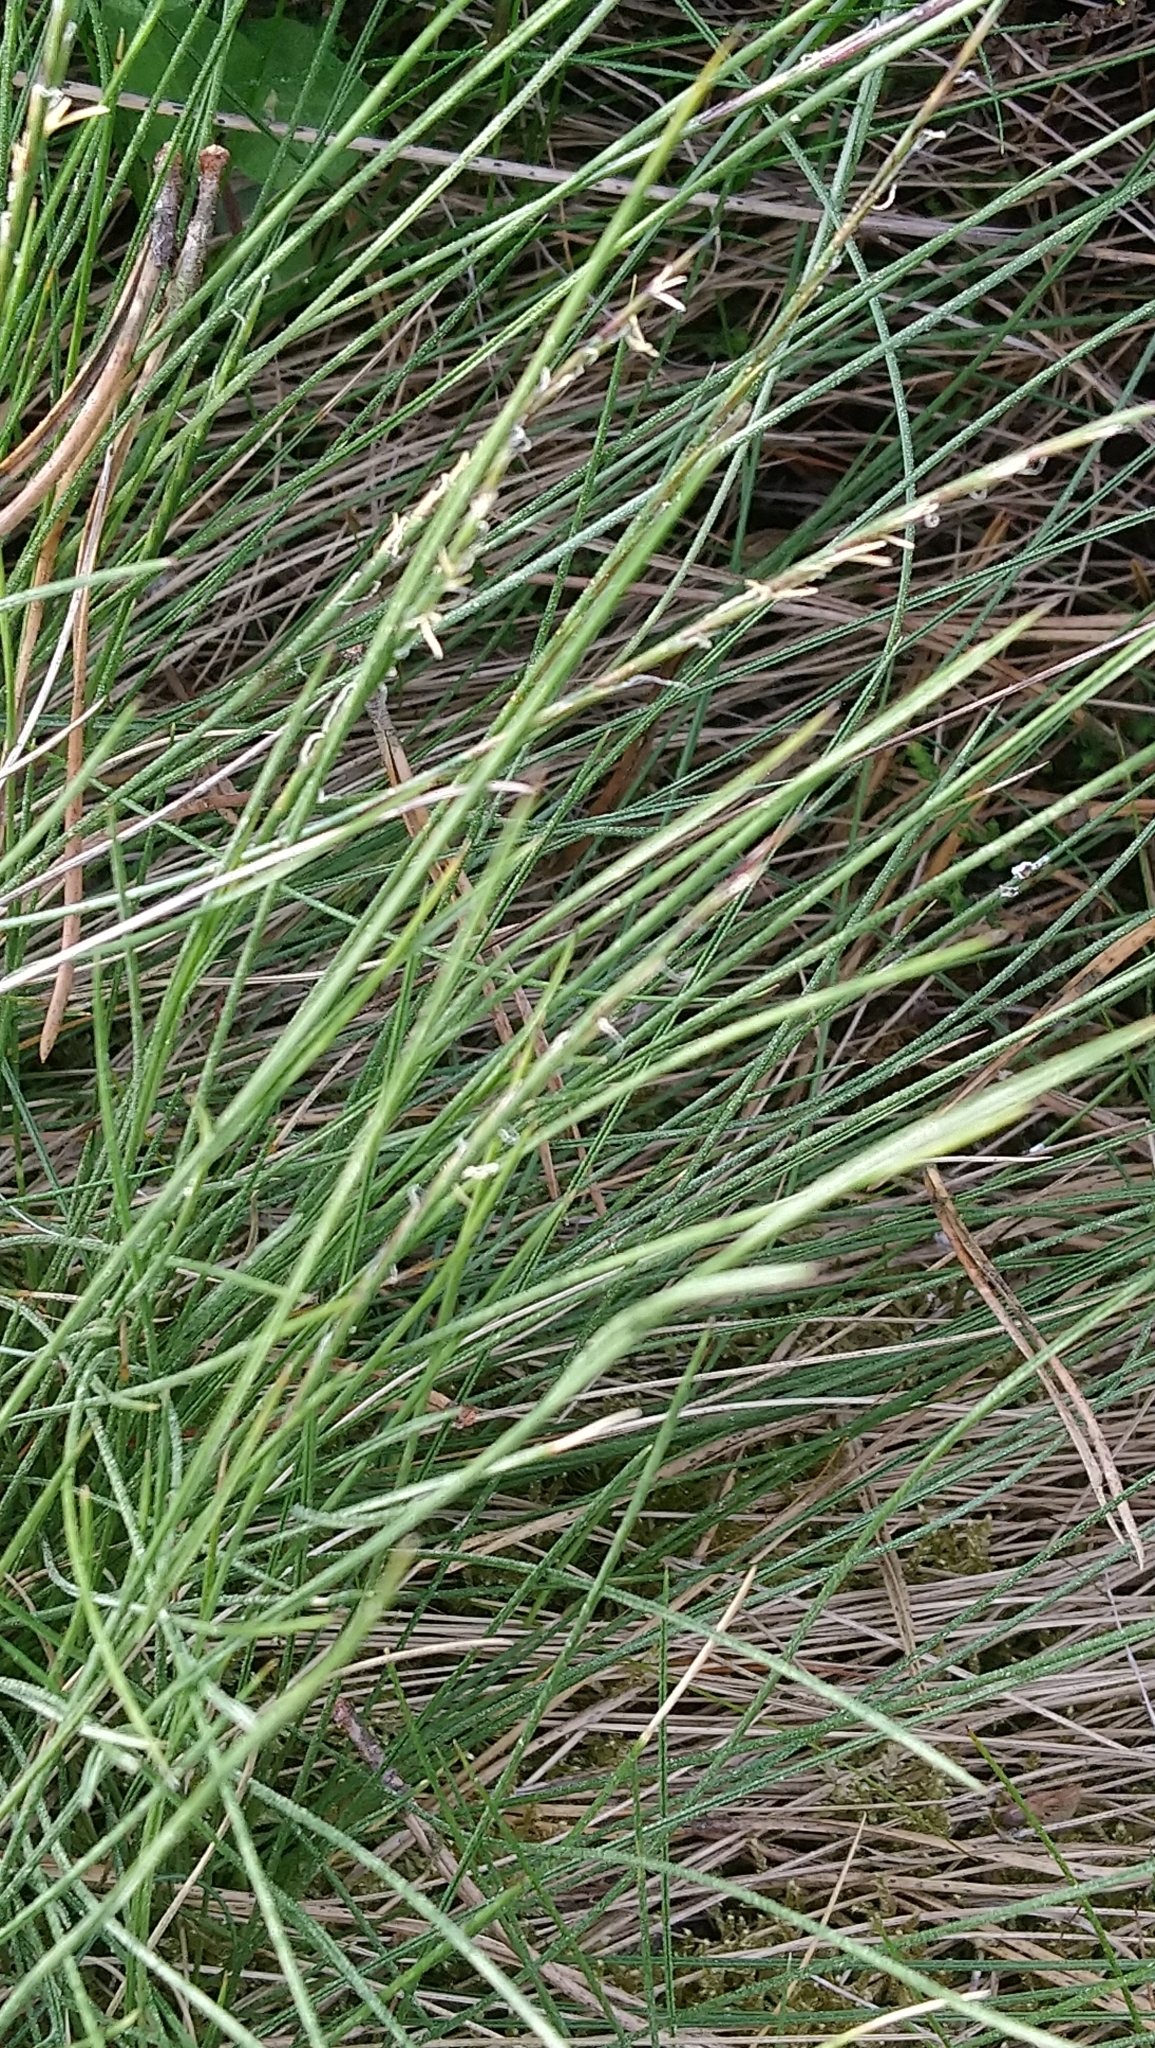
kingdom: Plantae
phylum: Tracheophyta
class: Liliopsida
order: Poales
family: Poaceae
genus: Nardus
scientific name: Nardus stricta
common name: Mat-grass
